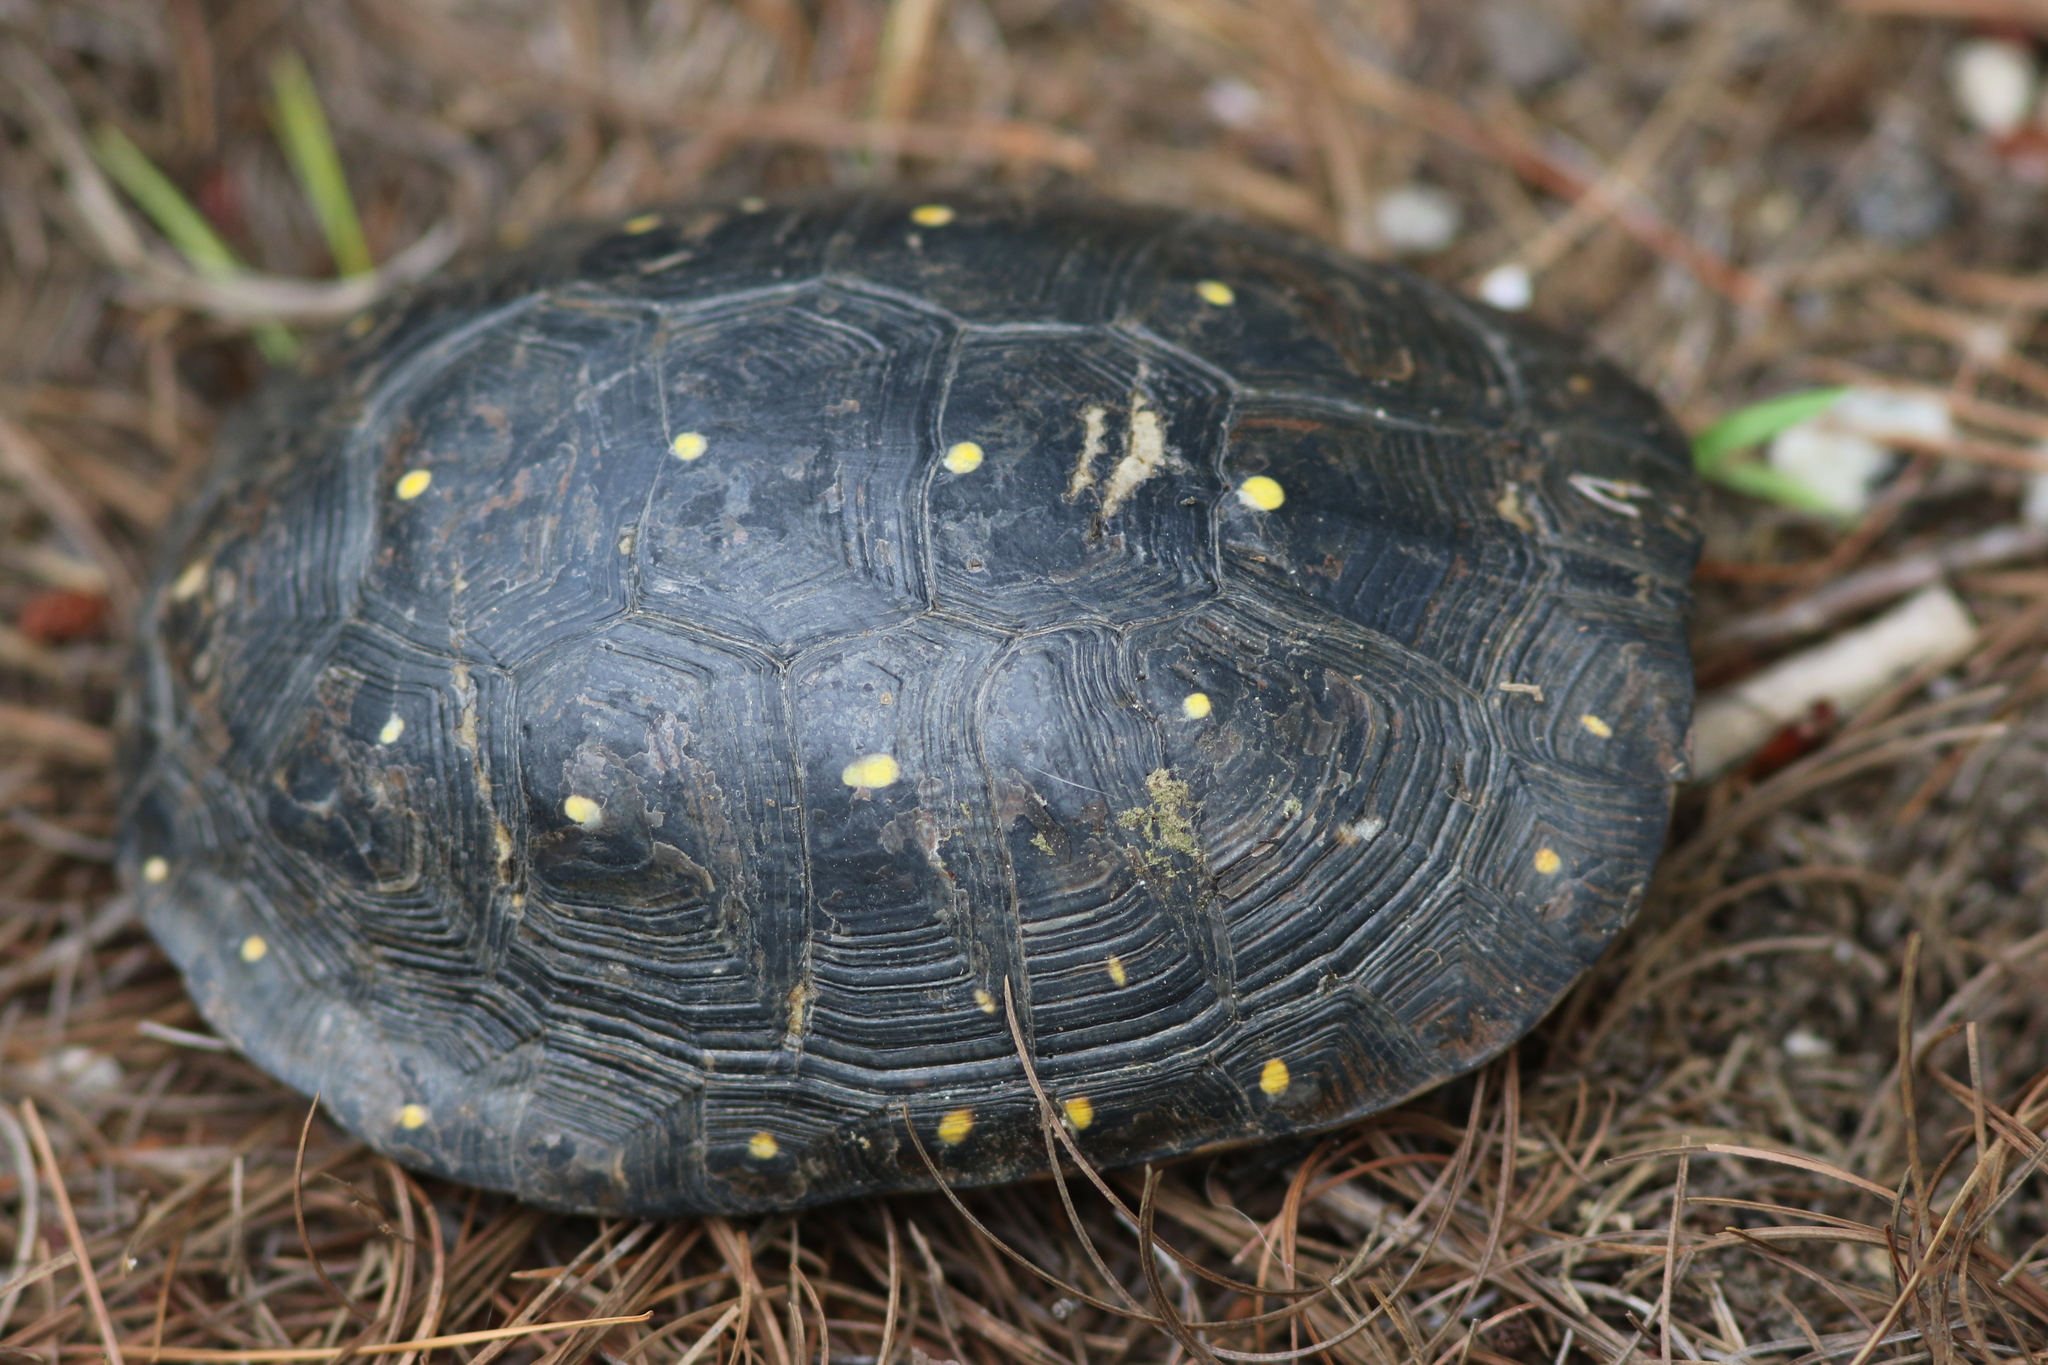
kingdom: Animalia
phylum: Chordata
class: Testudines
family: Emydidae
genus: Clemmys
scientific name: Clemmys guttata
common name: Spotted turtle
